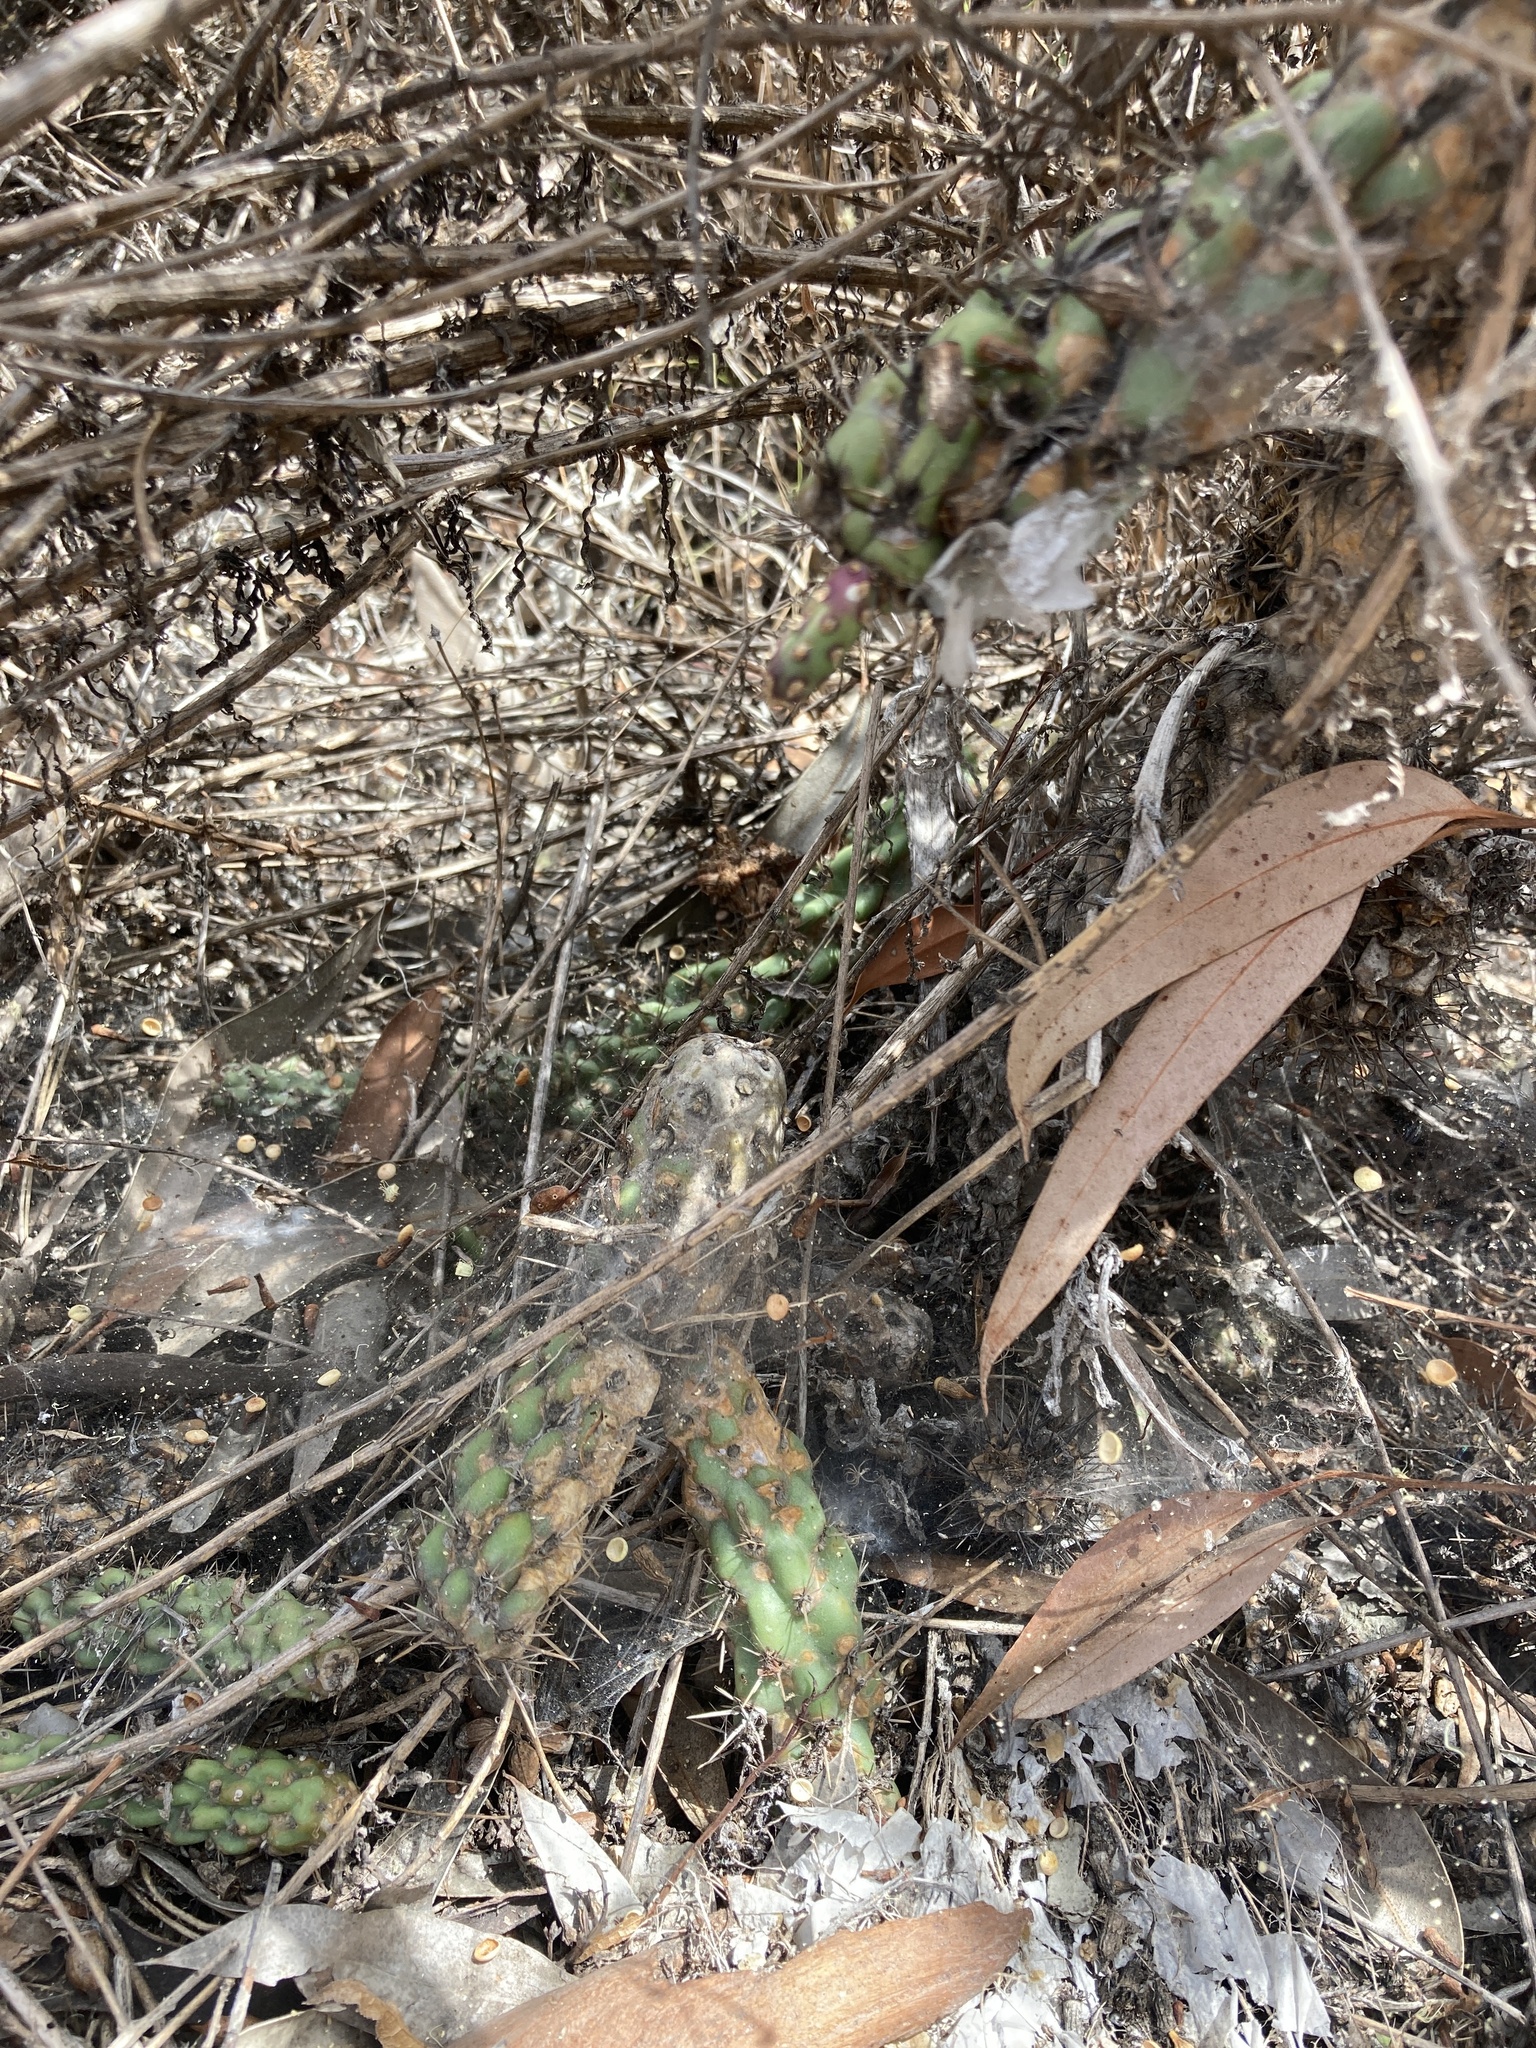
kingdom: Plantae
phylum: Tracheophyta
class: Magnoliopsida
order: Caryophyllales
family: Cactaceae
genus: Cylindropuntia
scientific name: Cylindropuntia prolifera
